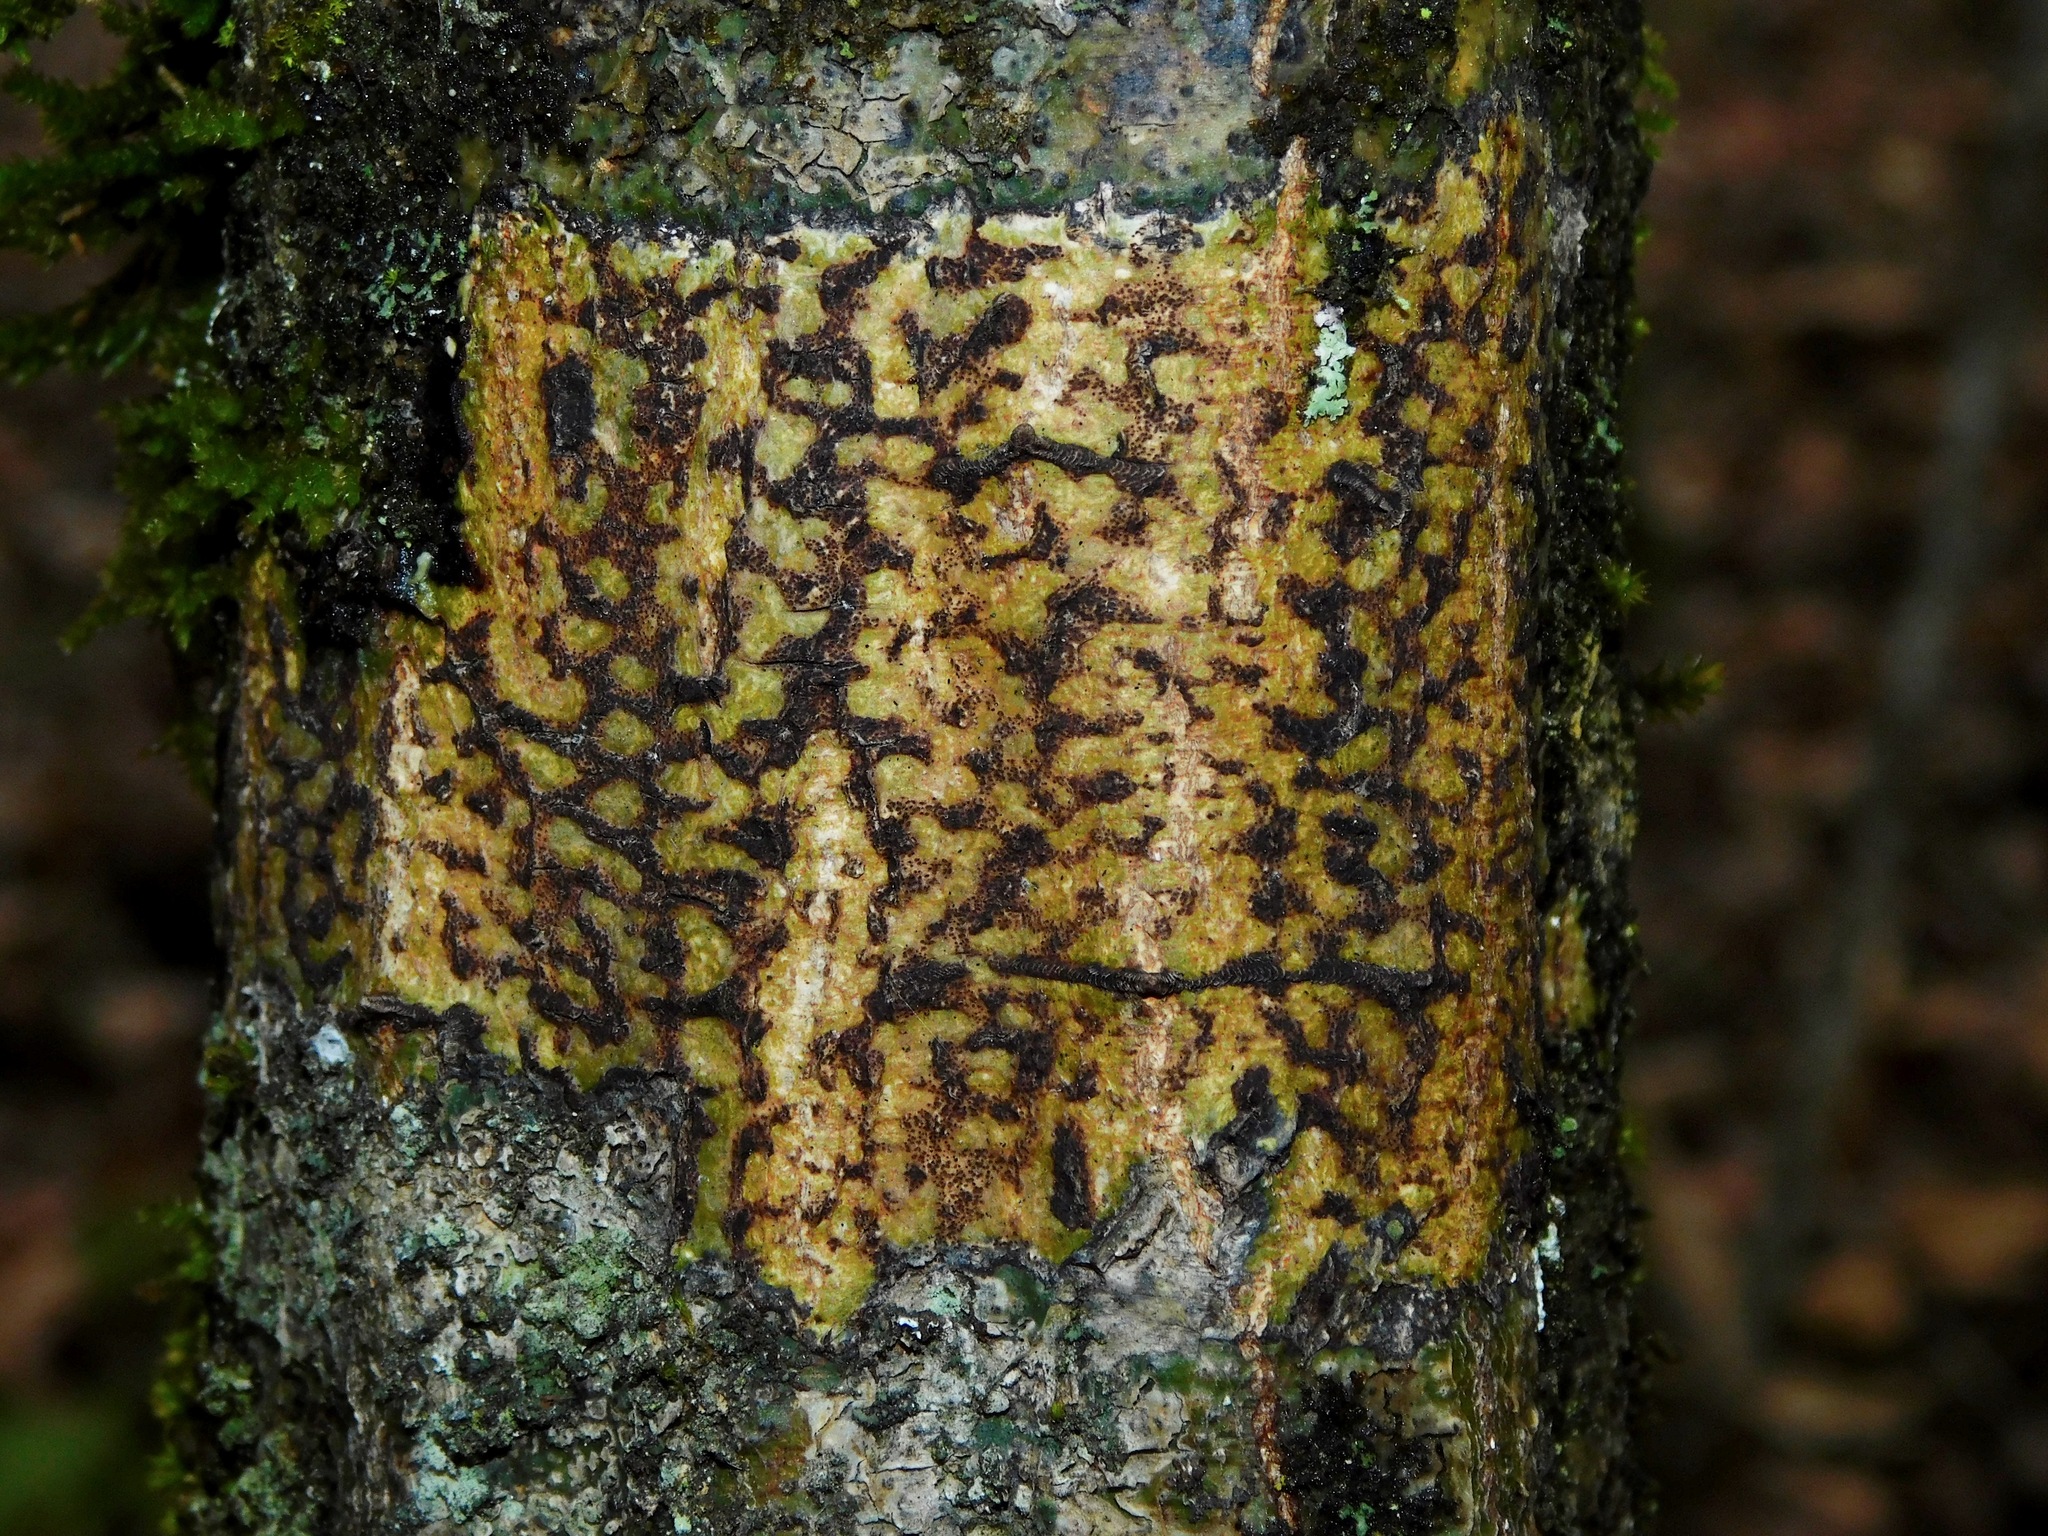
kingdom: Fungi
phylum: Ascomycota
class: Dothideomycetes
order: Trypetheliales
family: Trypetheliaceae
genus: Bathelium
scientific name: Bathelium carolinianum
